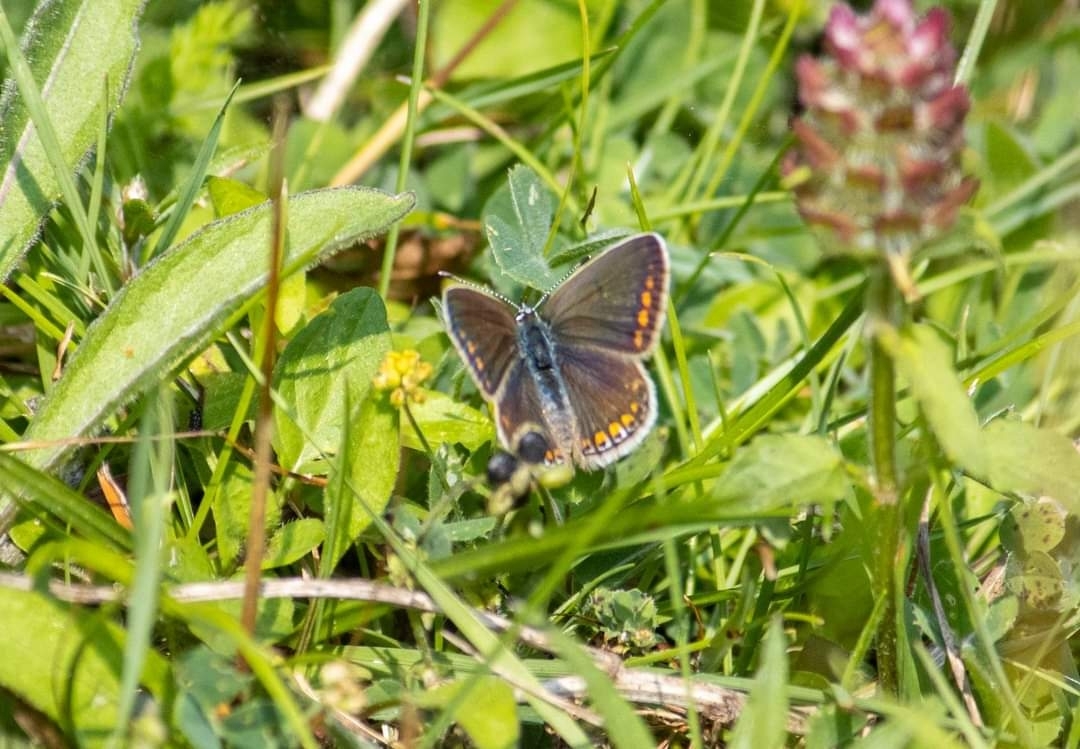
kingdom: Animalia
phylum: Arthropoda
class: Insecta
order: Lepidoptera
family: Lycaenidae
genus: Polyommatus
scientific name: Polyommatus icarus
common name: Common blue
